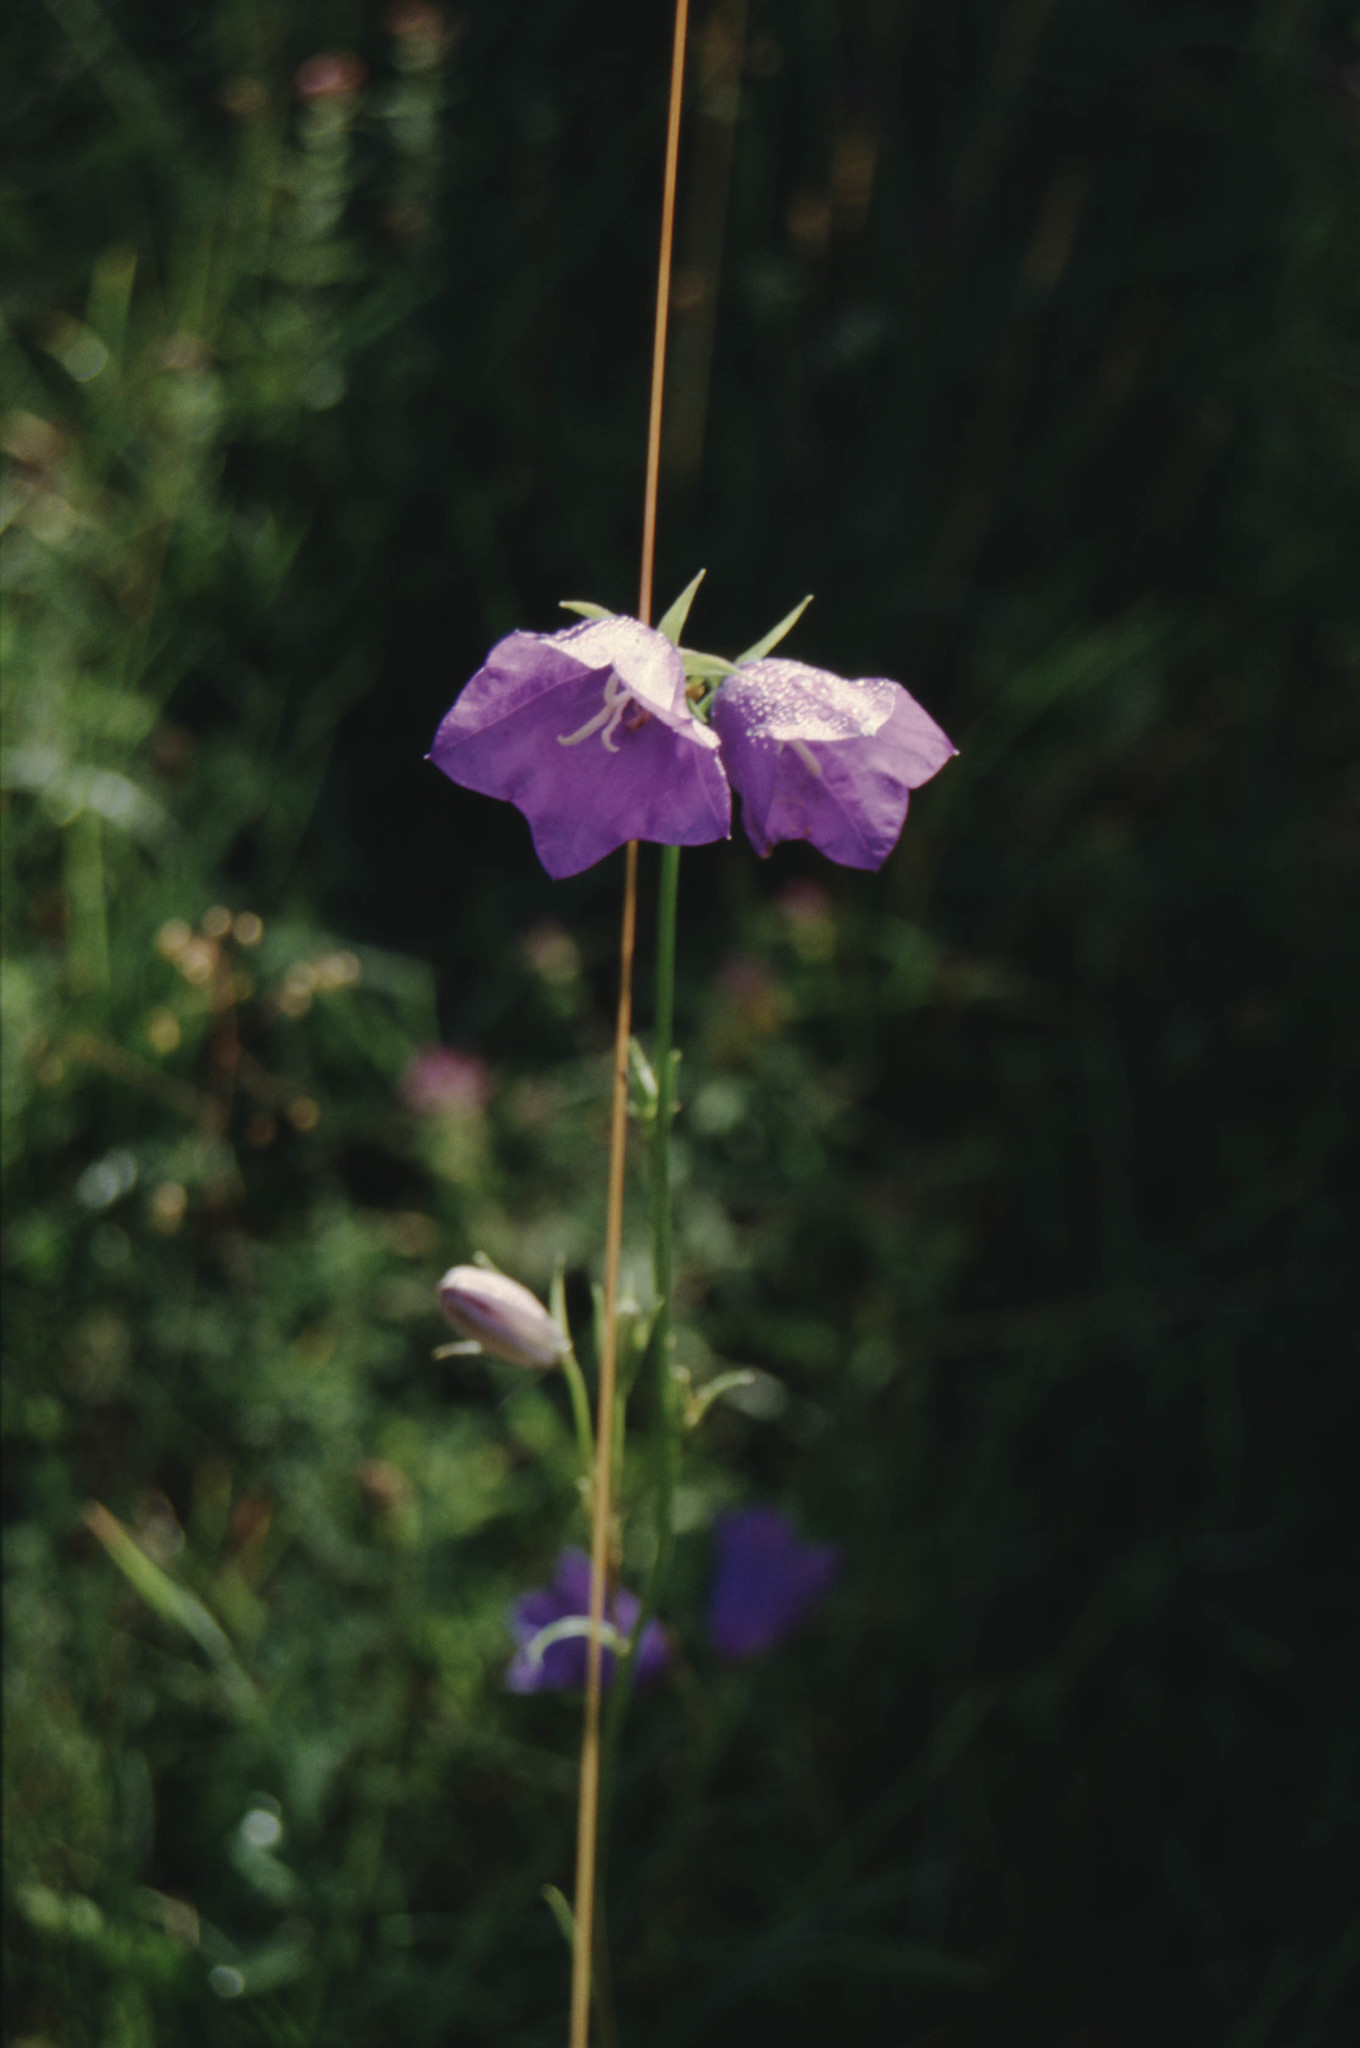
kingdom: Plantae
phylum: Tracheophyta
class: Magnoliopsida
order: Asterales
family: Campanulaceae
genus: Campanula
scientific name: Campanula persicifolia
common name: Peach-leaved bellflower
